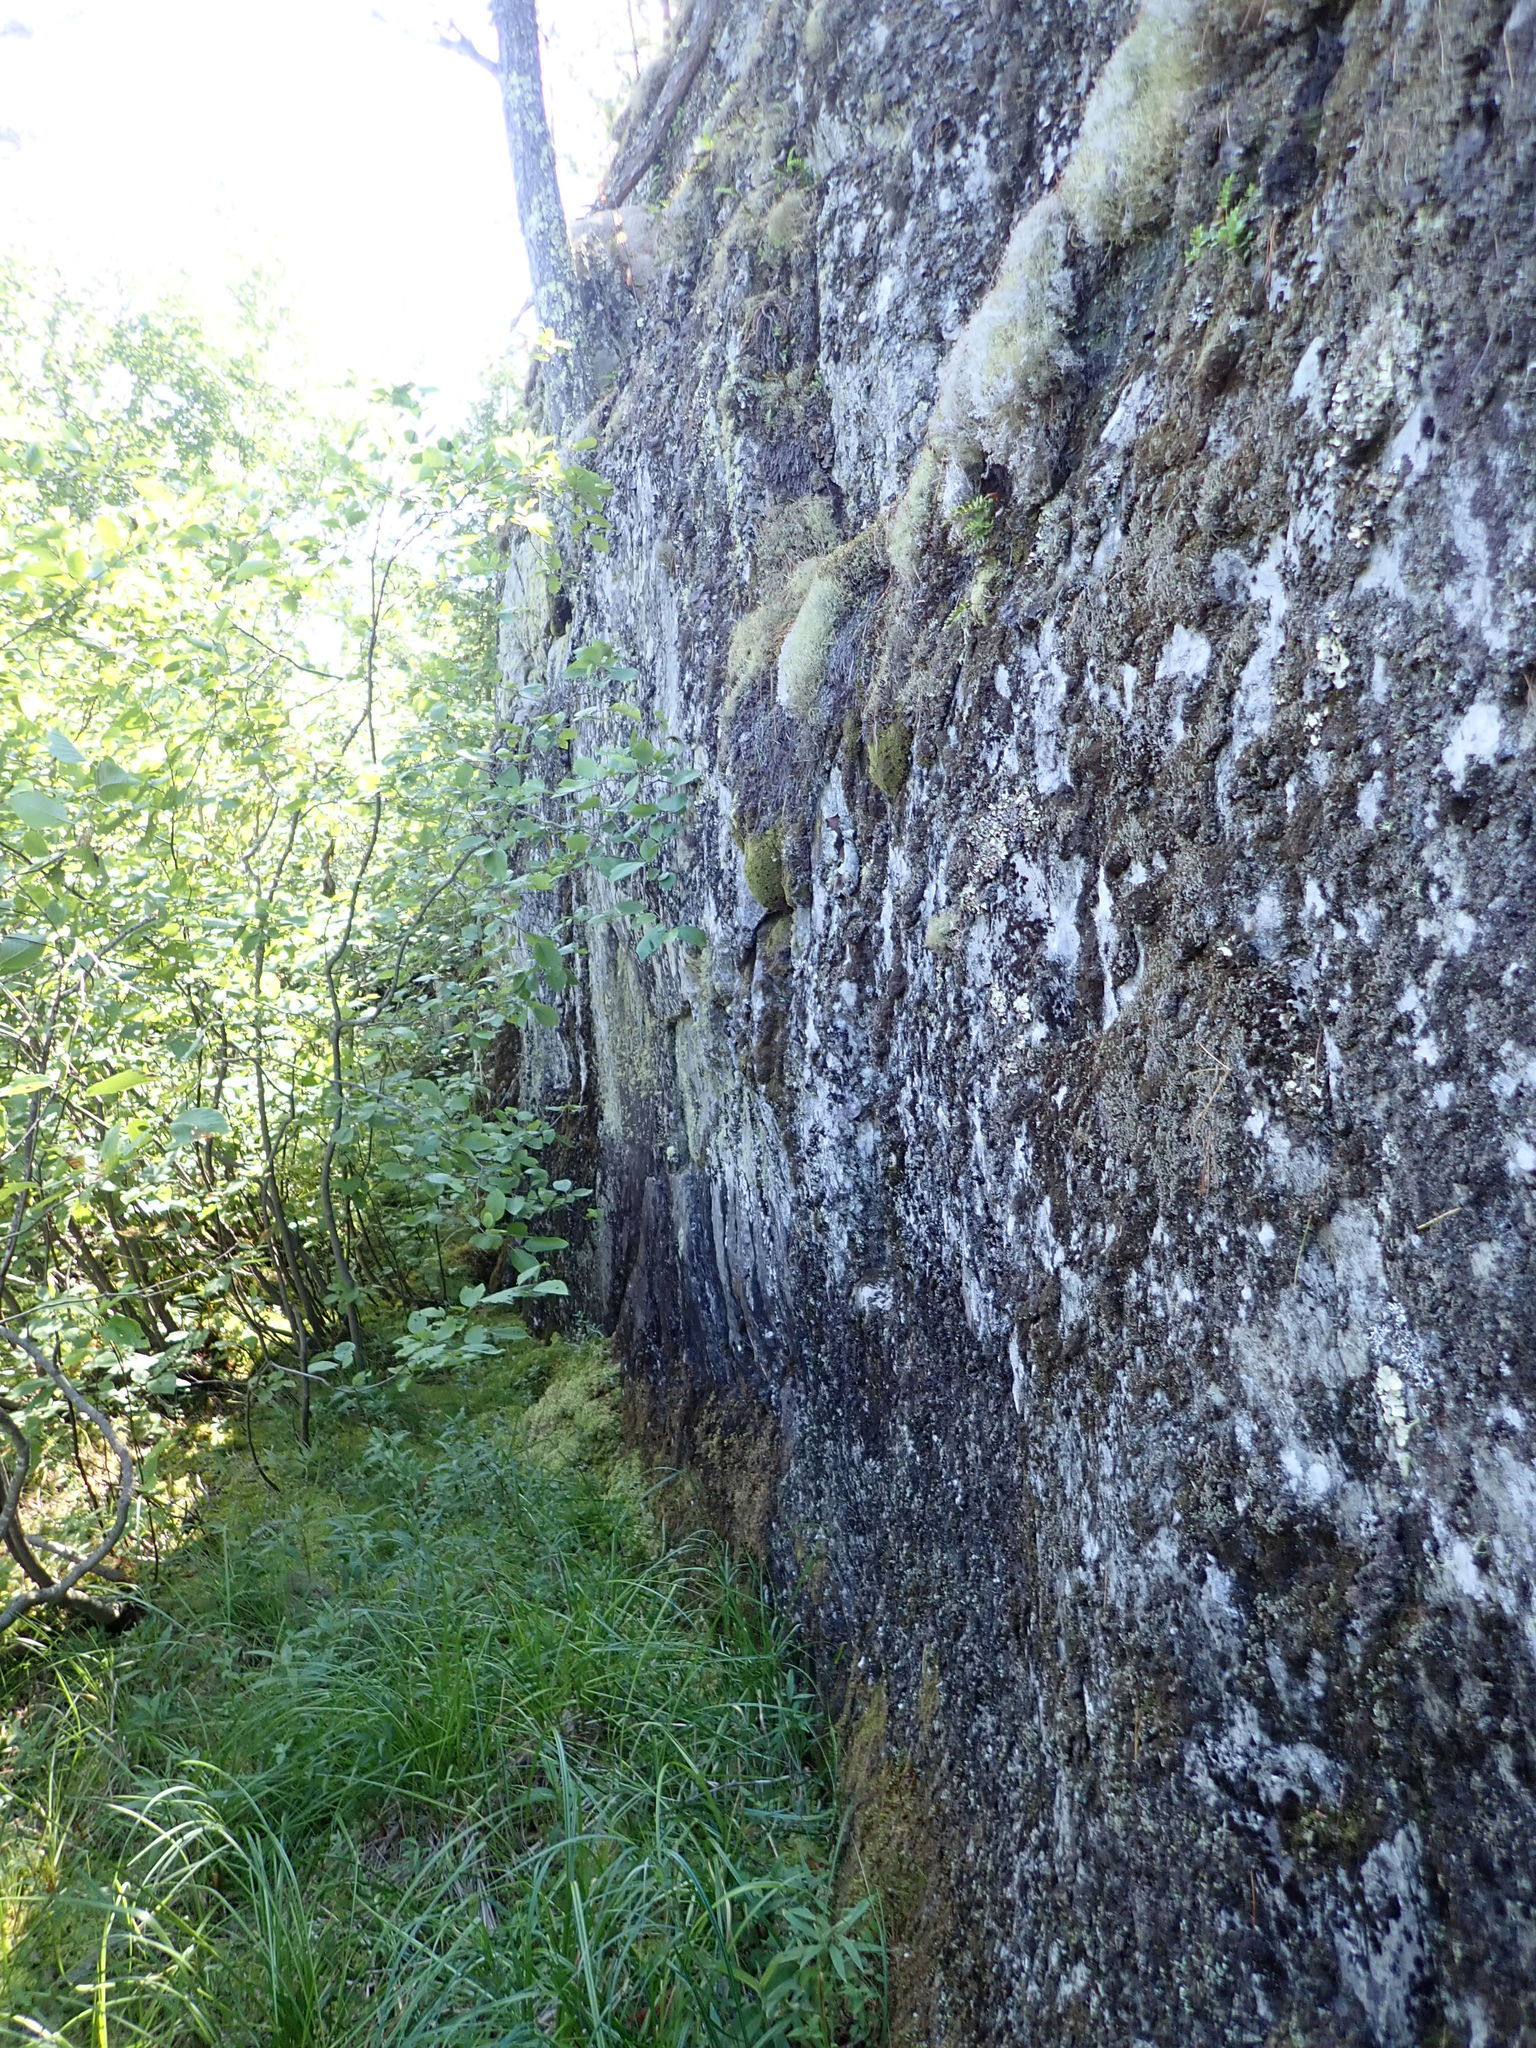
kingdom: Fungi
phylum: Ascomycota
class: Lecanoromycetes
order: Lecanorales
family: Psilolechiaceae
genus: Psilolechia
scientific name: Psilolechia lucida
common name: Sulphur dust lichen
